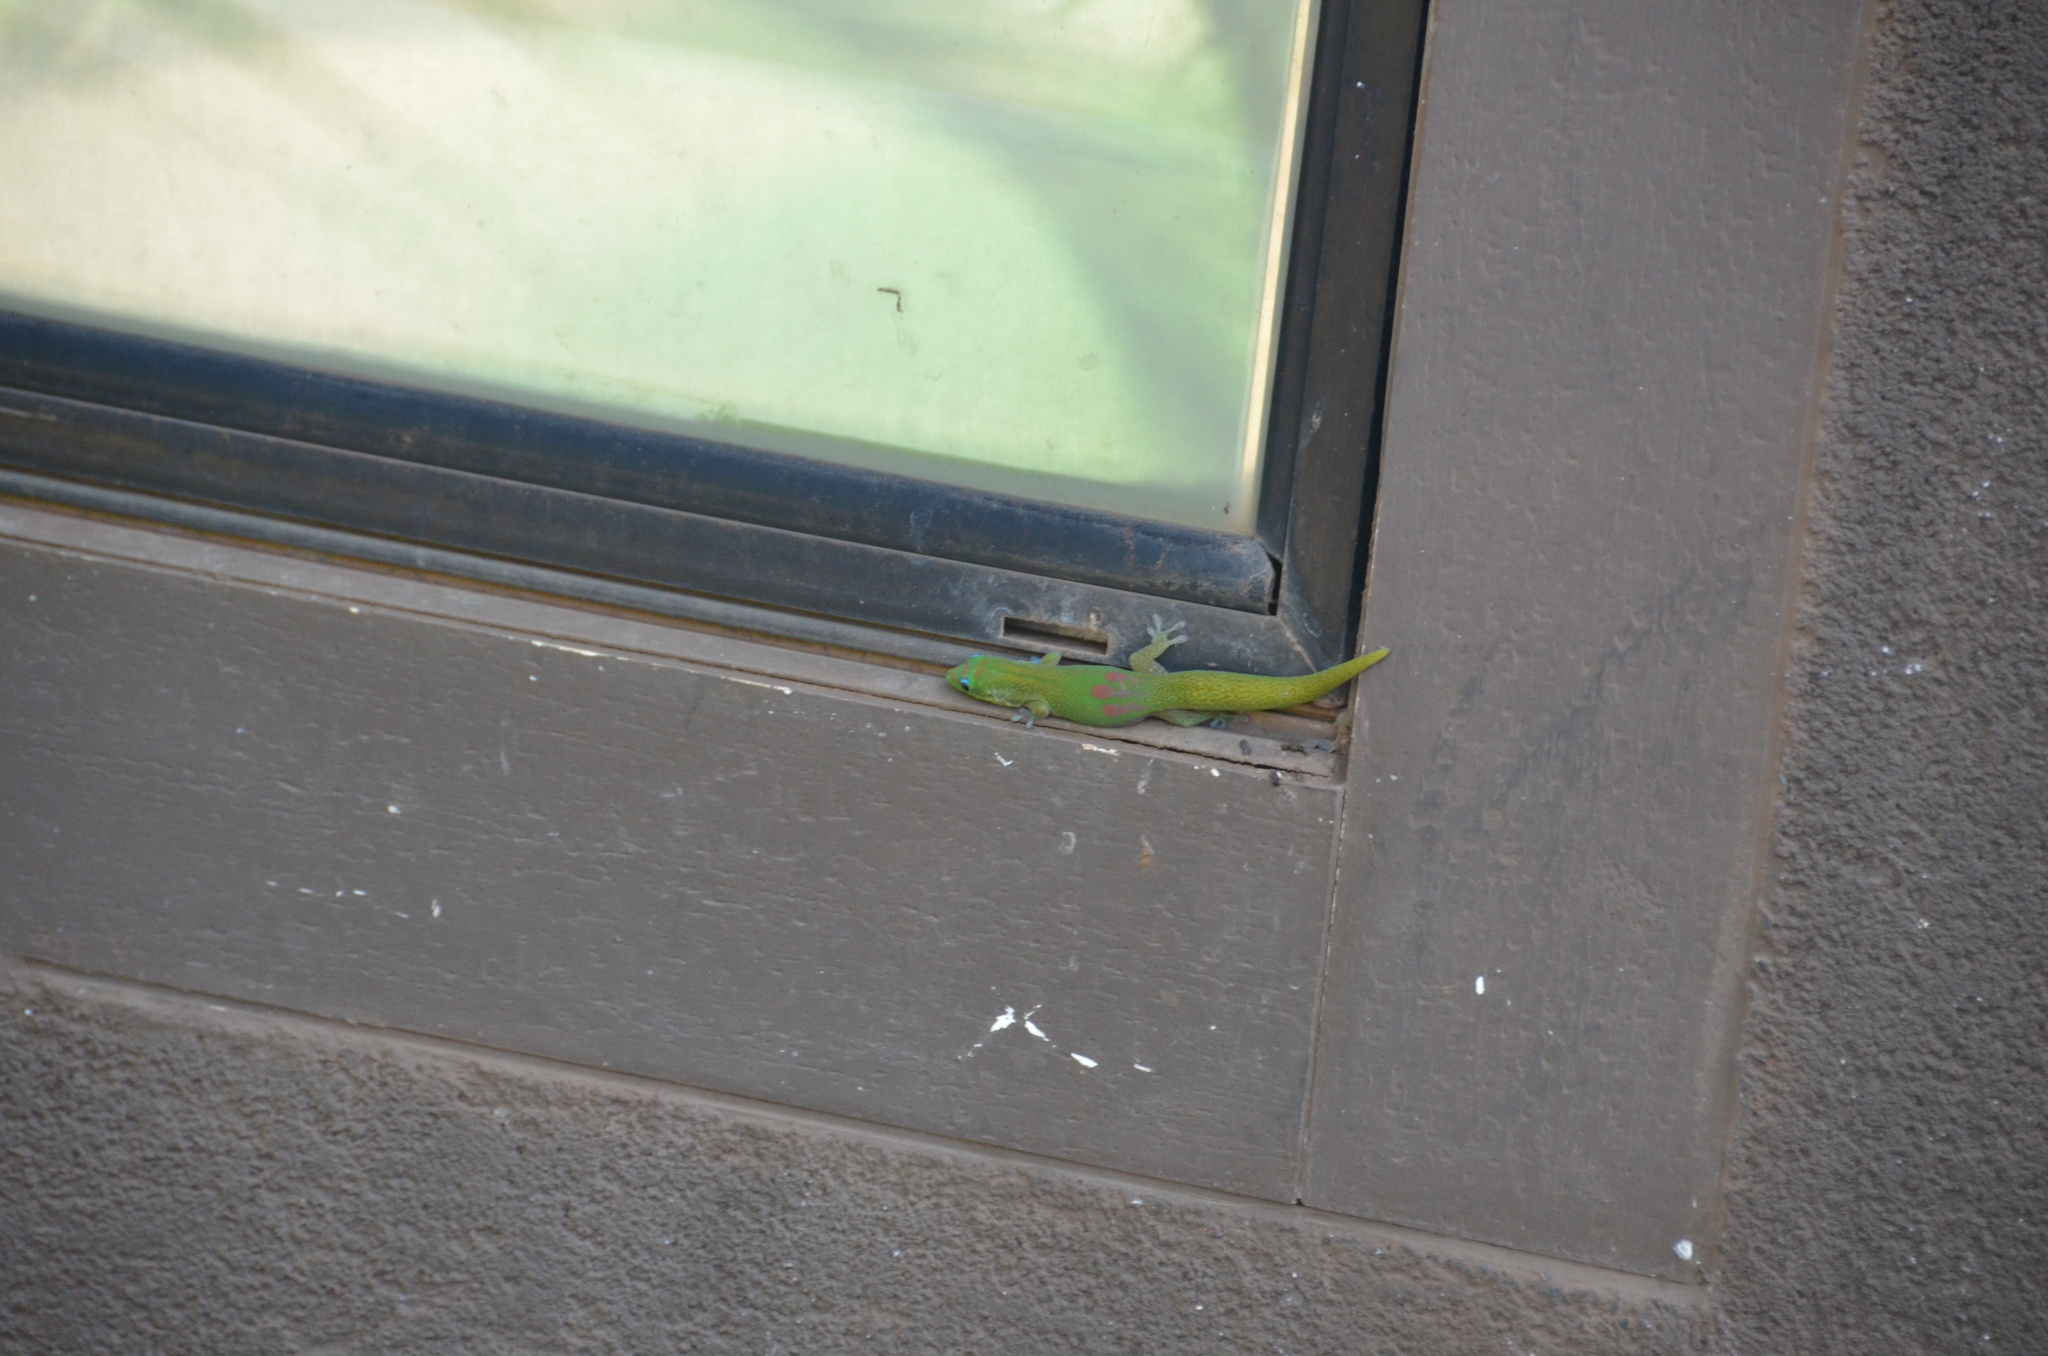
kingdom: Animalia
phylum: Chordata
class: Squamata
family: Gekkonidae
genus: Phelsuma
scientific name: Phelsuma laticauda
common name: Gold dust day gecko
